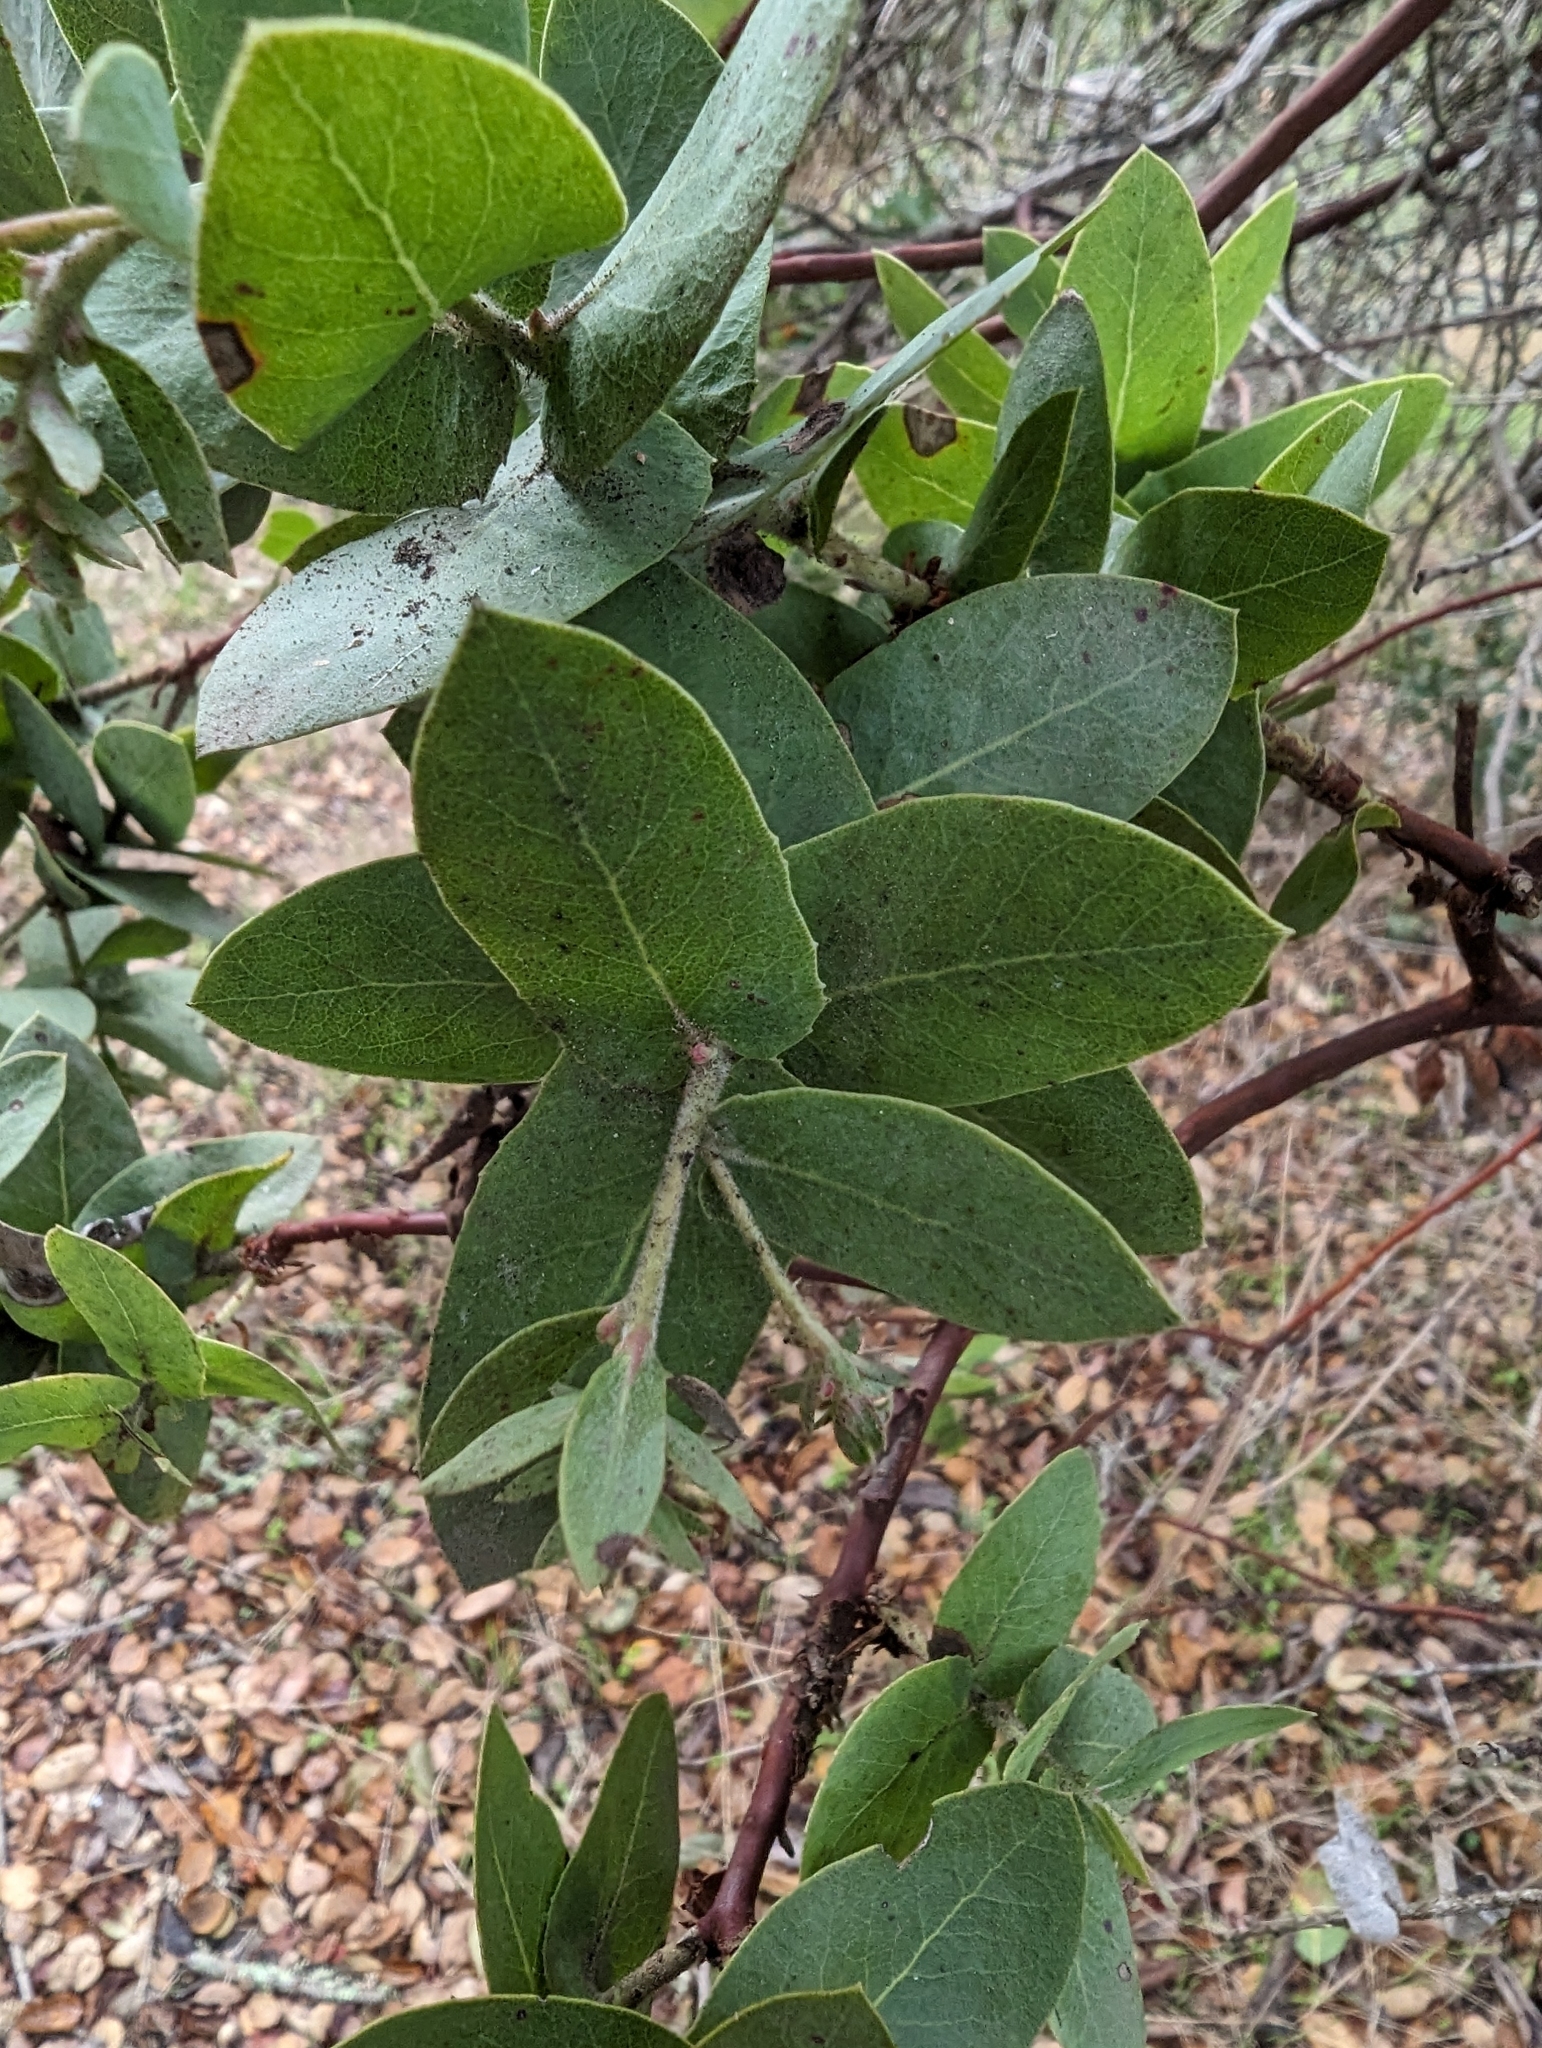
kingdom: Plantae
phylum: Tracheophyta
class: Magnoliopsida
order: Ericales
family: Ericaceae
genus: Arctostaphylos
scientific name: Arctostaphylos pallida
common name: Pallid manzanita
